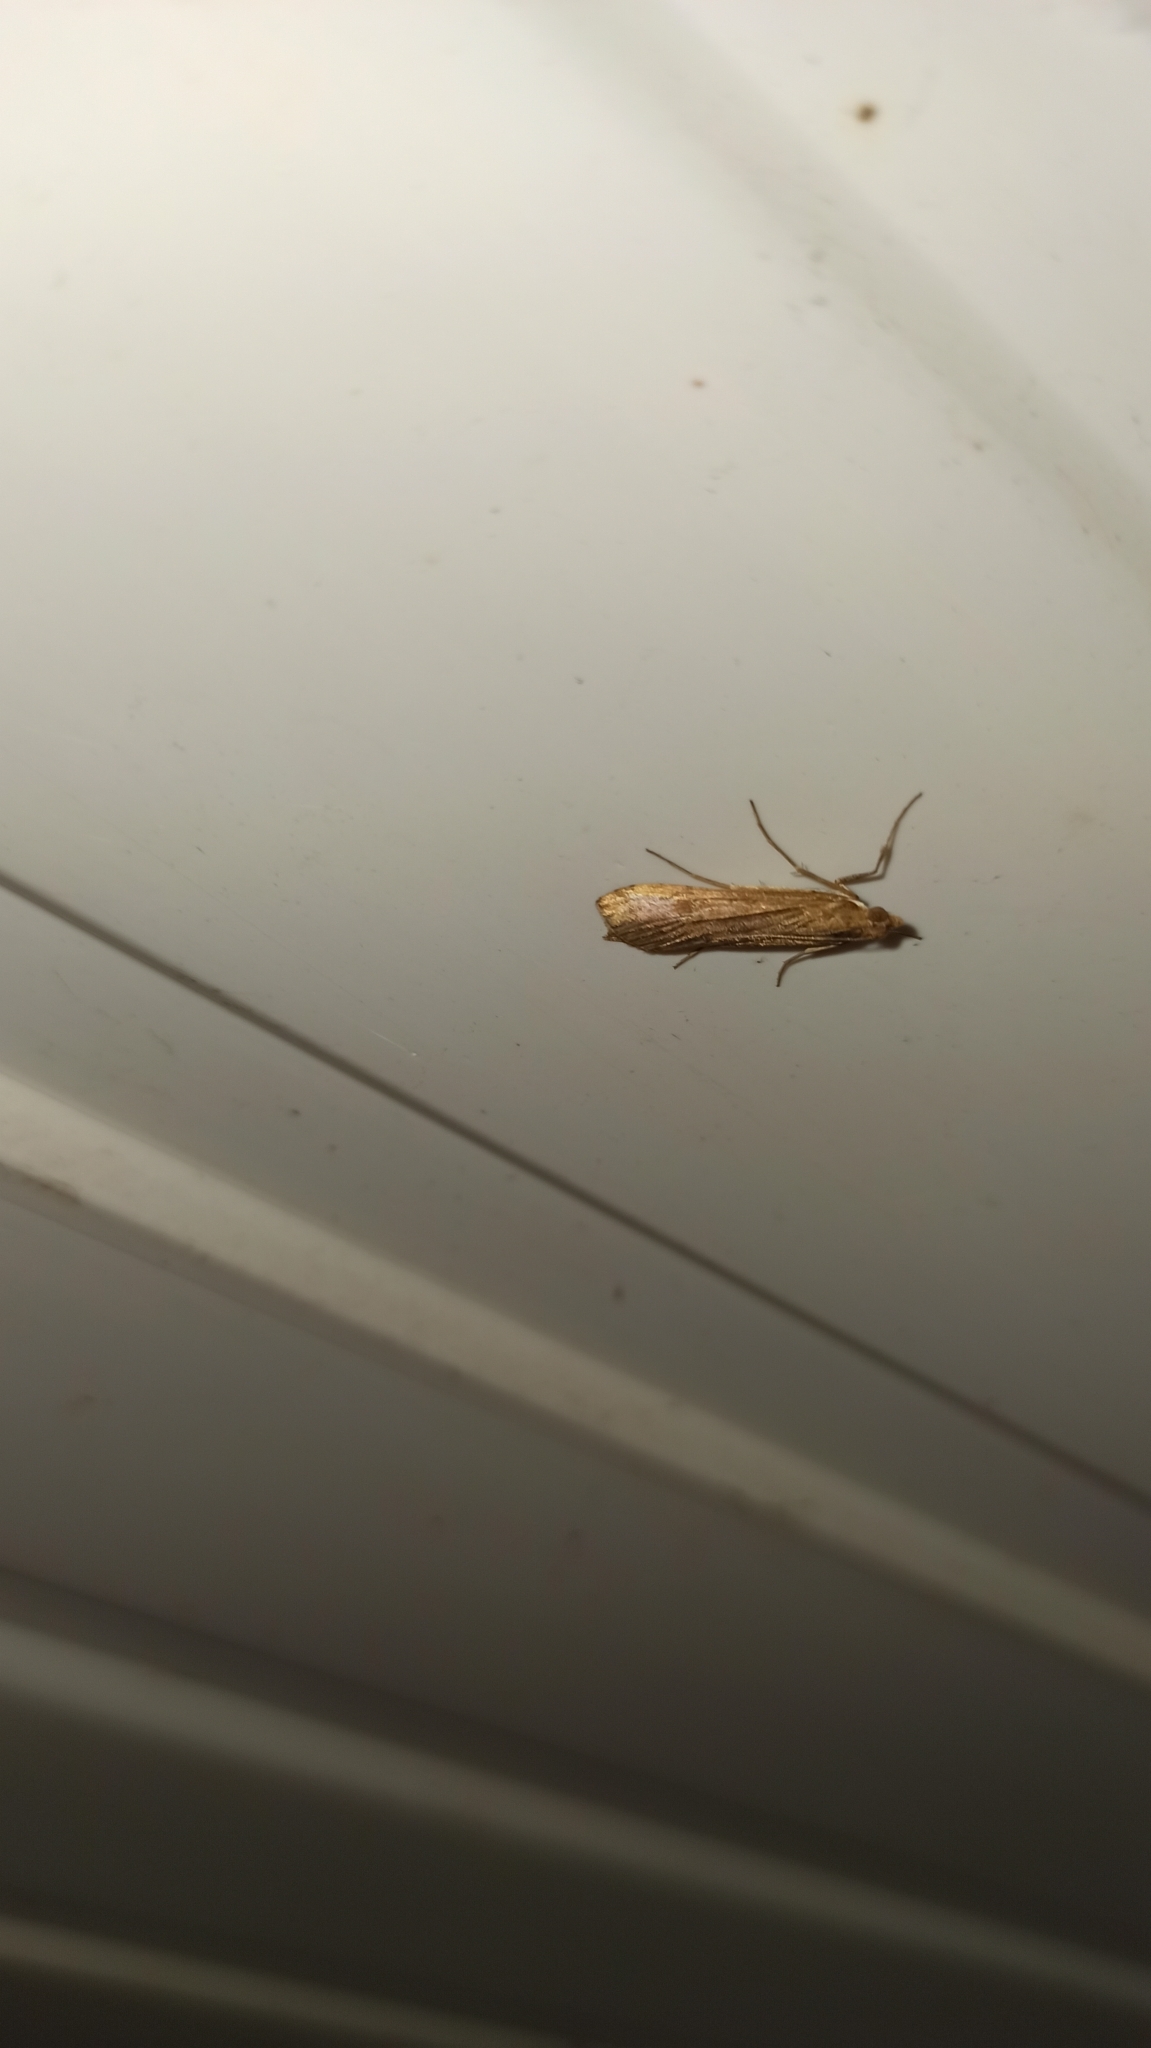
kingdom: Animalia
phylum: Arthropoda
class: Insecta
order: Lepidoptera
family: Crambidae
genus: Nomophila
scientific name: Nomophila noctuella
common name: Rush veneer
